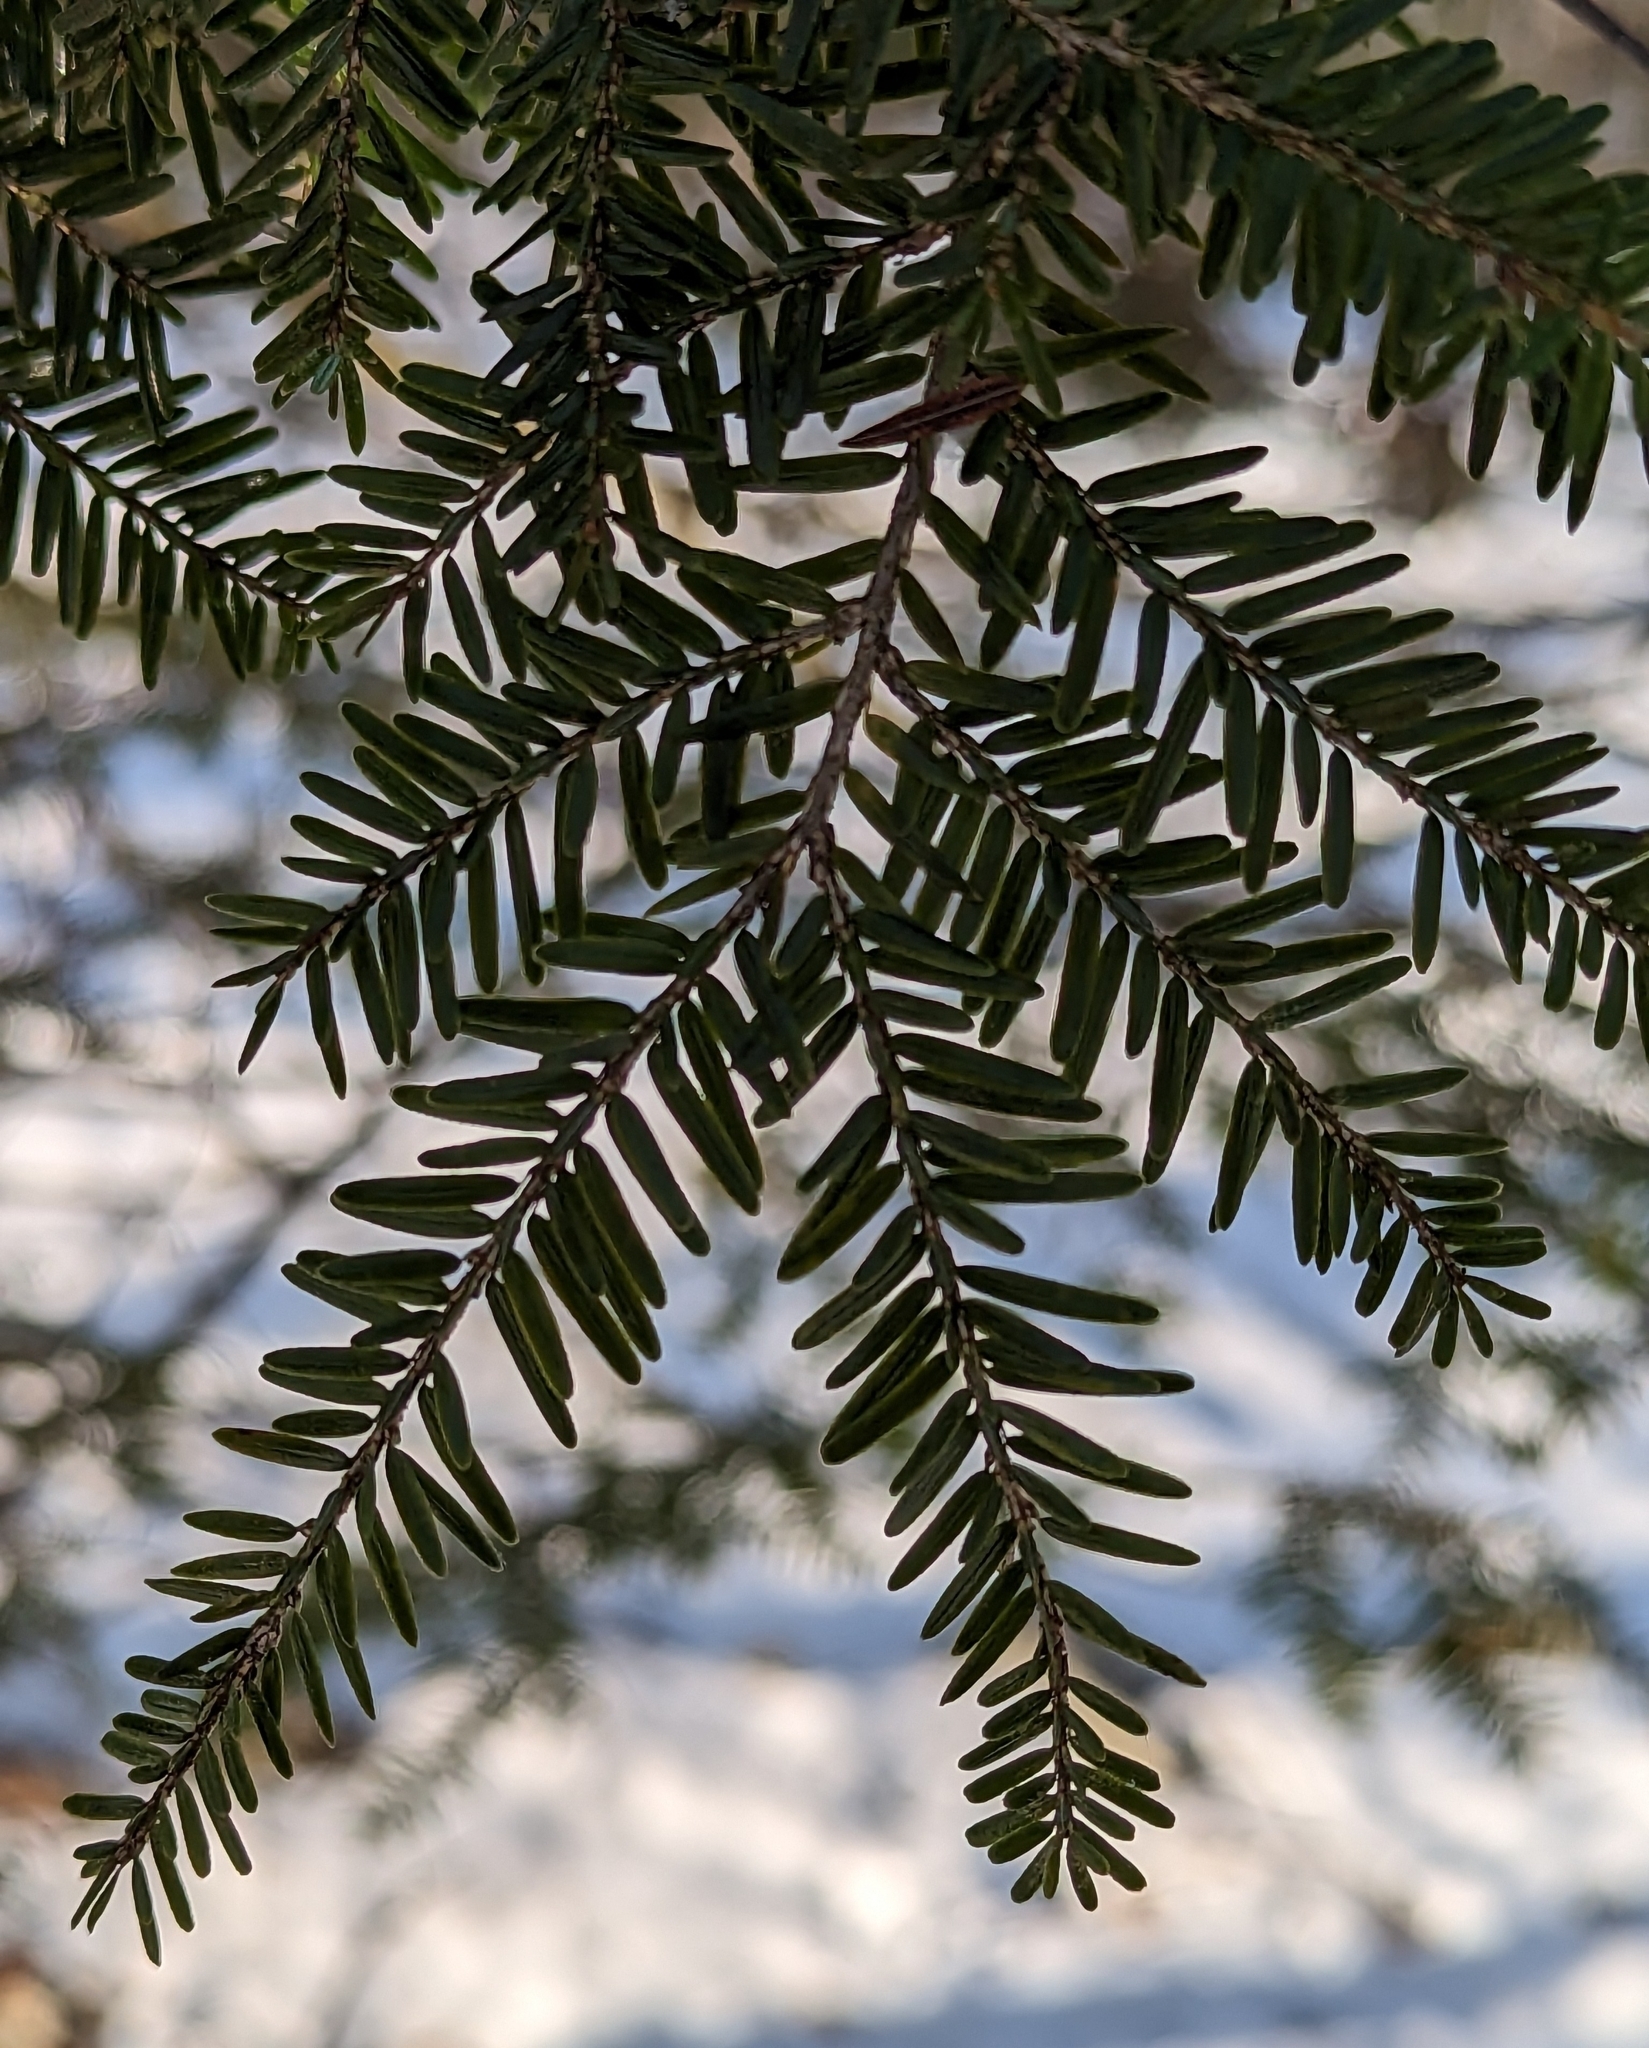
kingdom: Plantae
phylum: Tracheophyta
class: Pinopsida
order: Pinales
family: Pinaceae
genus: Tsuga
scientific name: Tsuga canadensis
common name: Eastern hemlock
